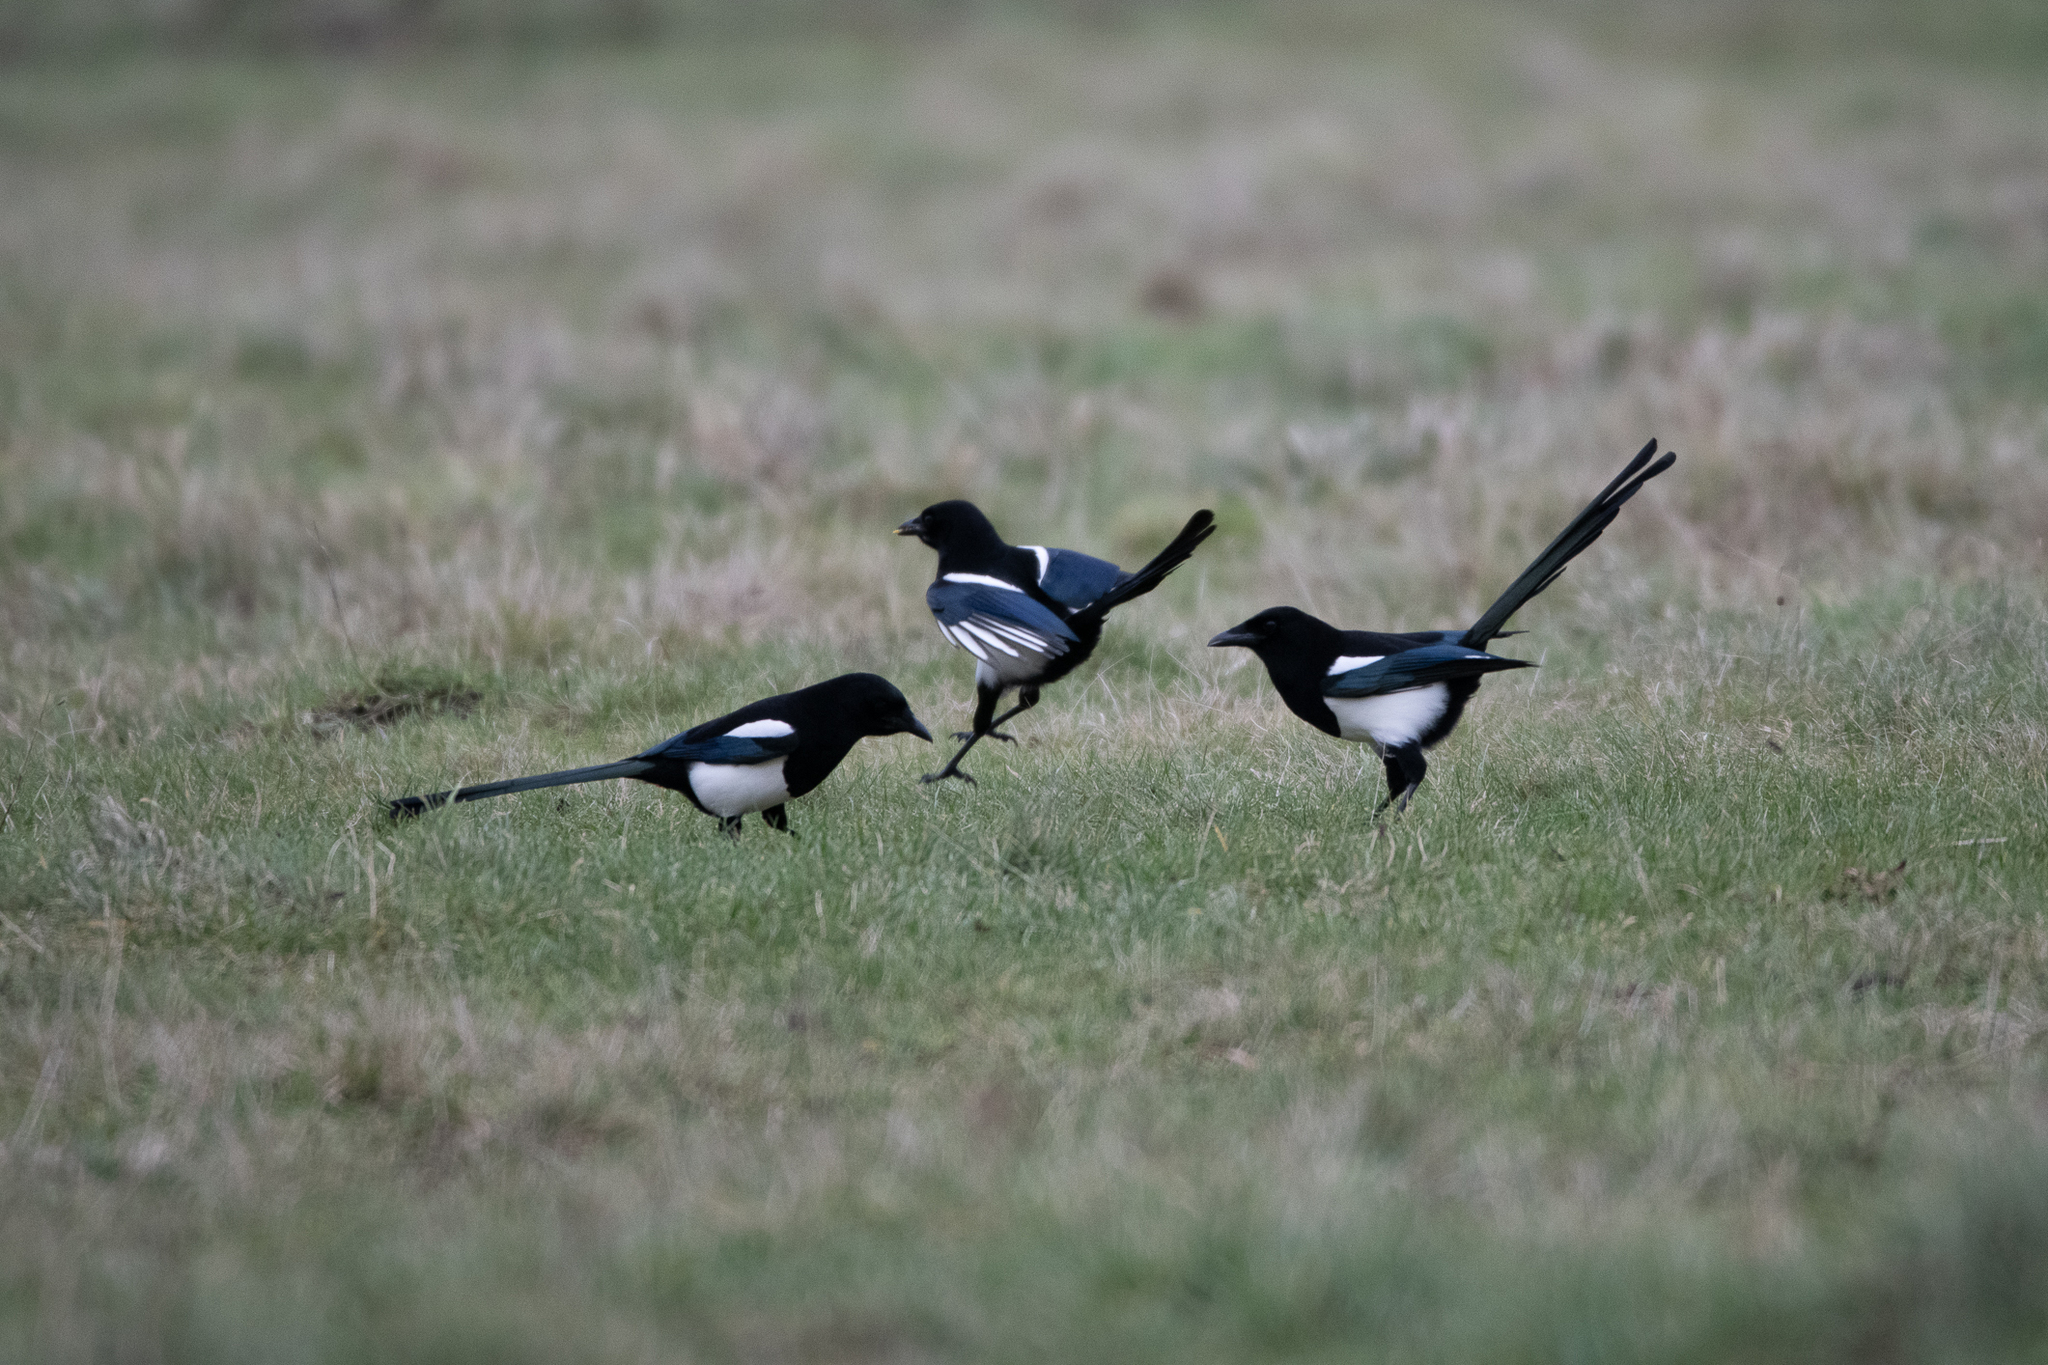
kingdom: Animalia
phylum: Chordata
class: Aves
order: Passeriformes
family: Corvidae
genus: Pica
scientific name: Pica pica
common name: Eurasian magpie
